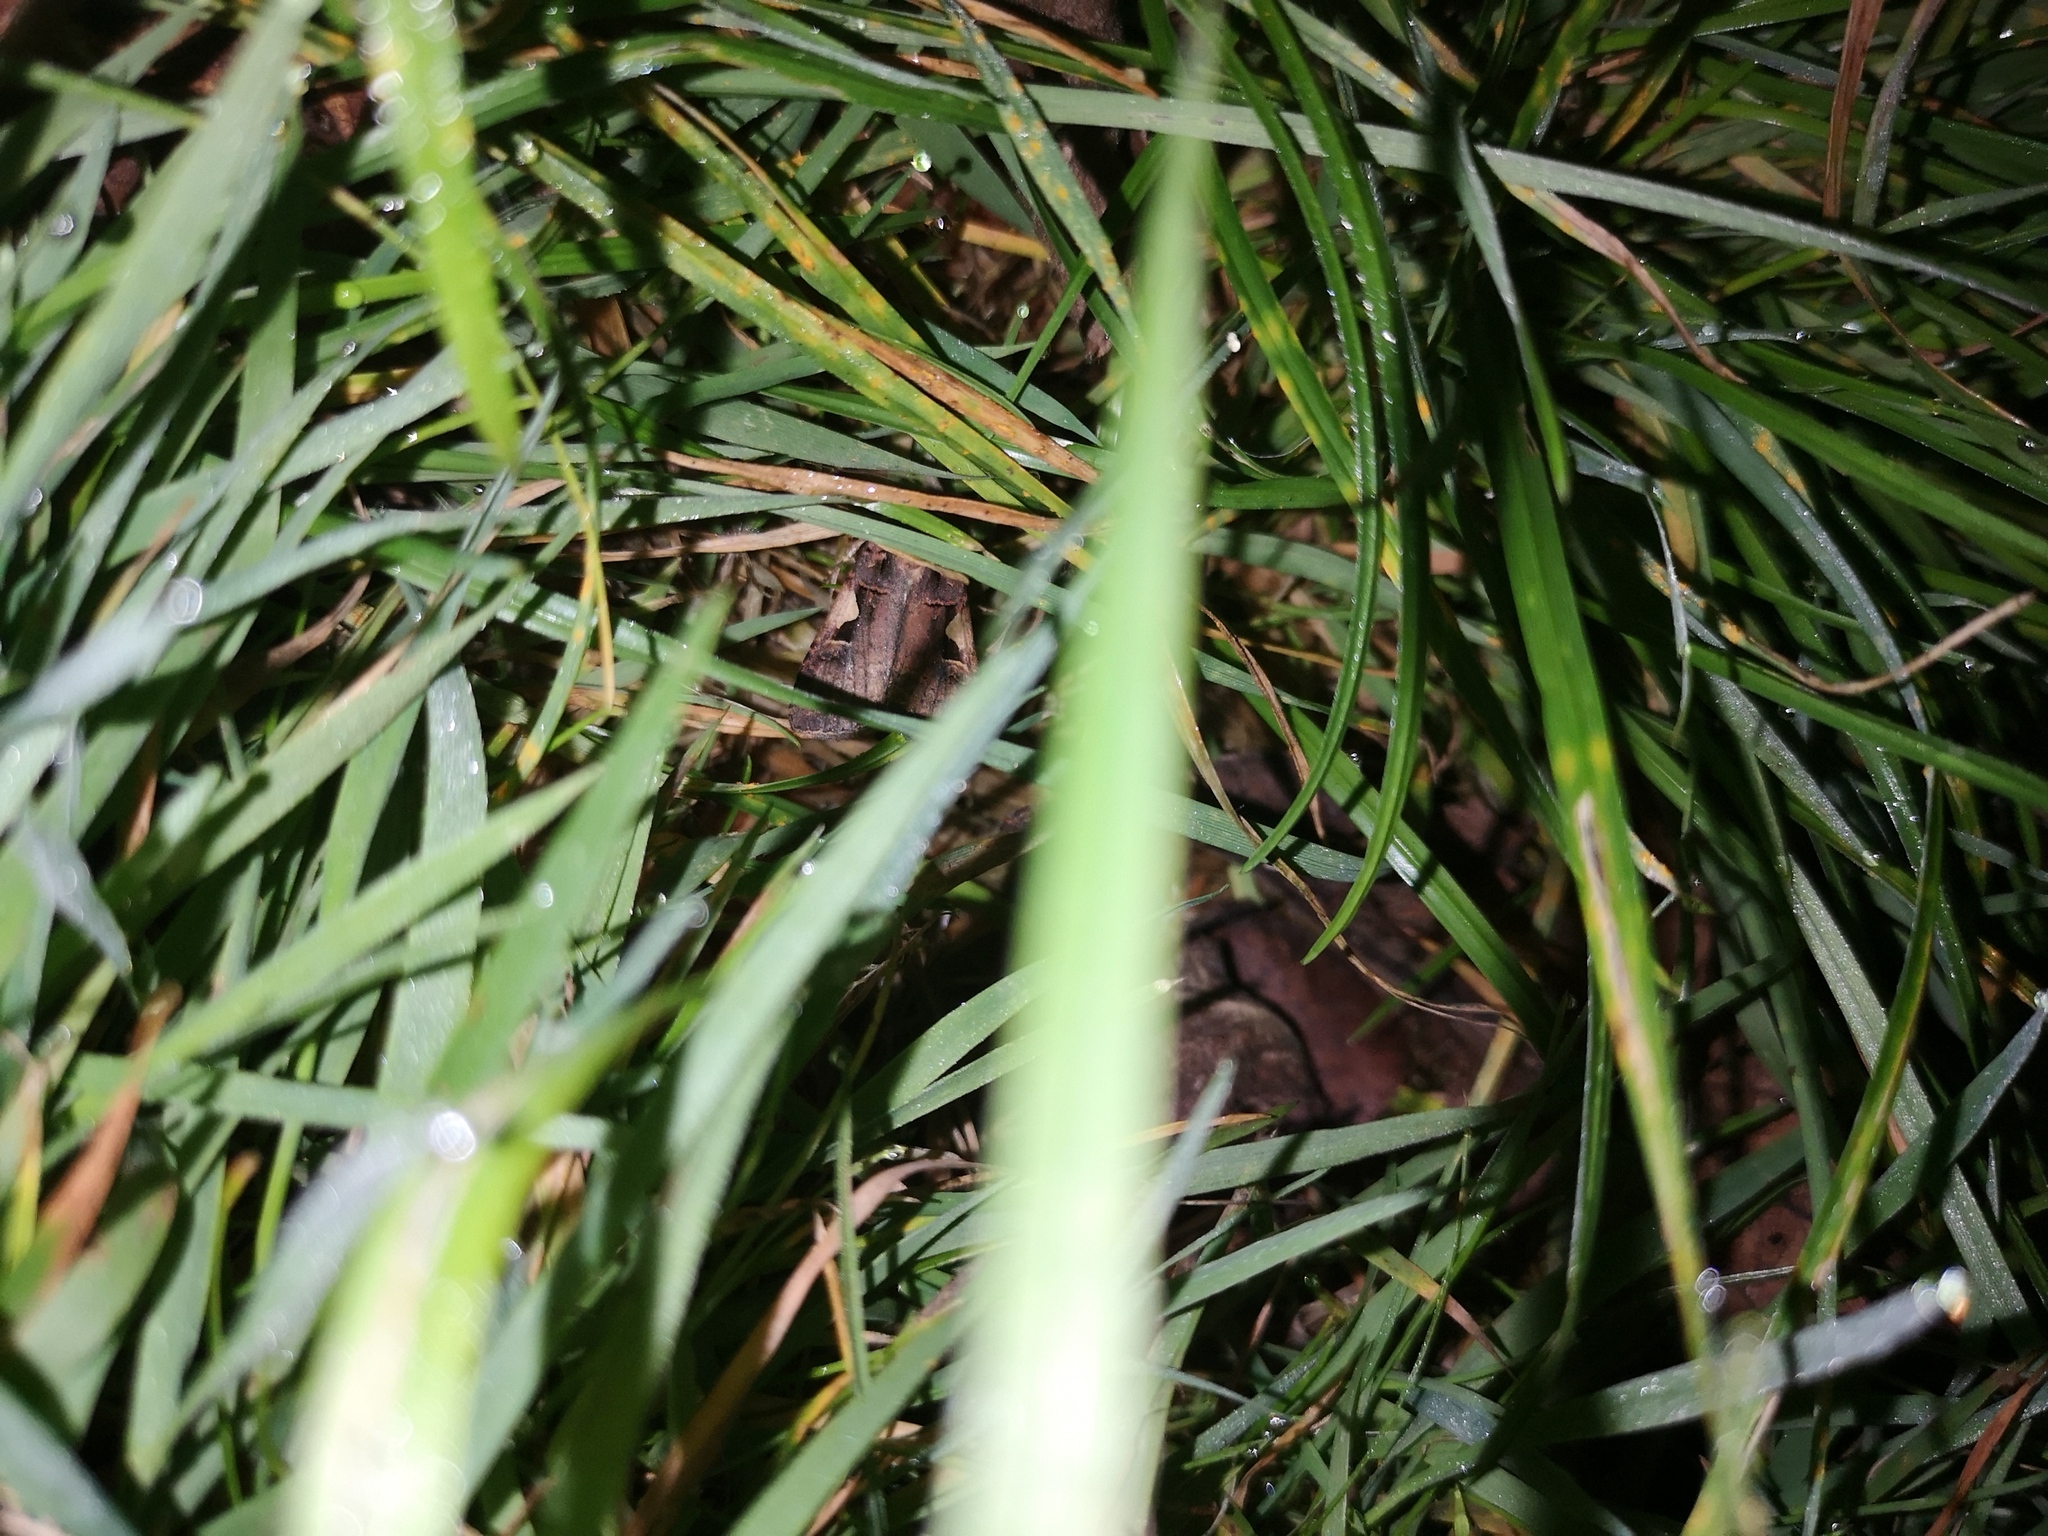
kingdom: Animalia
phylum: Arthropoda
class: Insecta
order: Lepidoptera
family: Noctuidae
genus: Xestia
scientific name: Xestia c-nigrum
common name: Setaceous hebrew character
